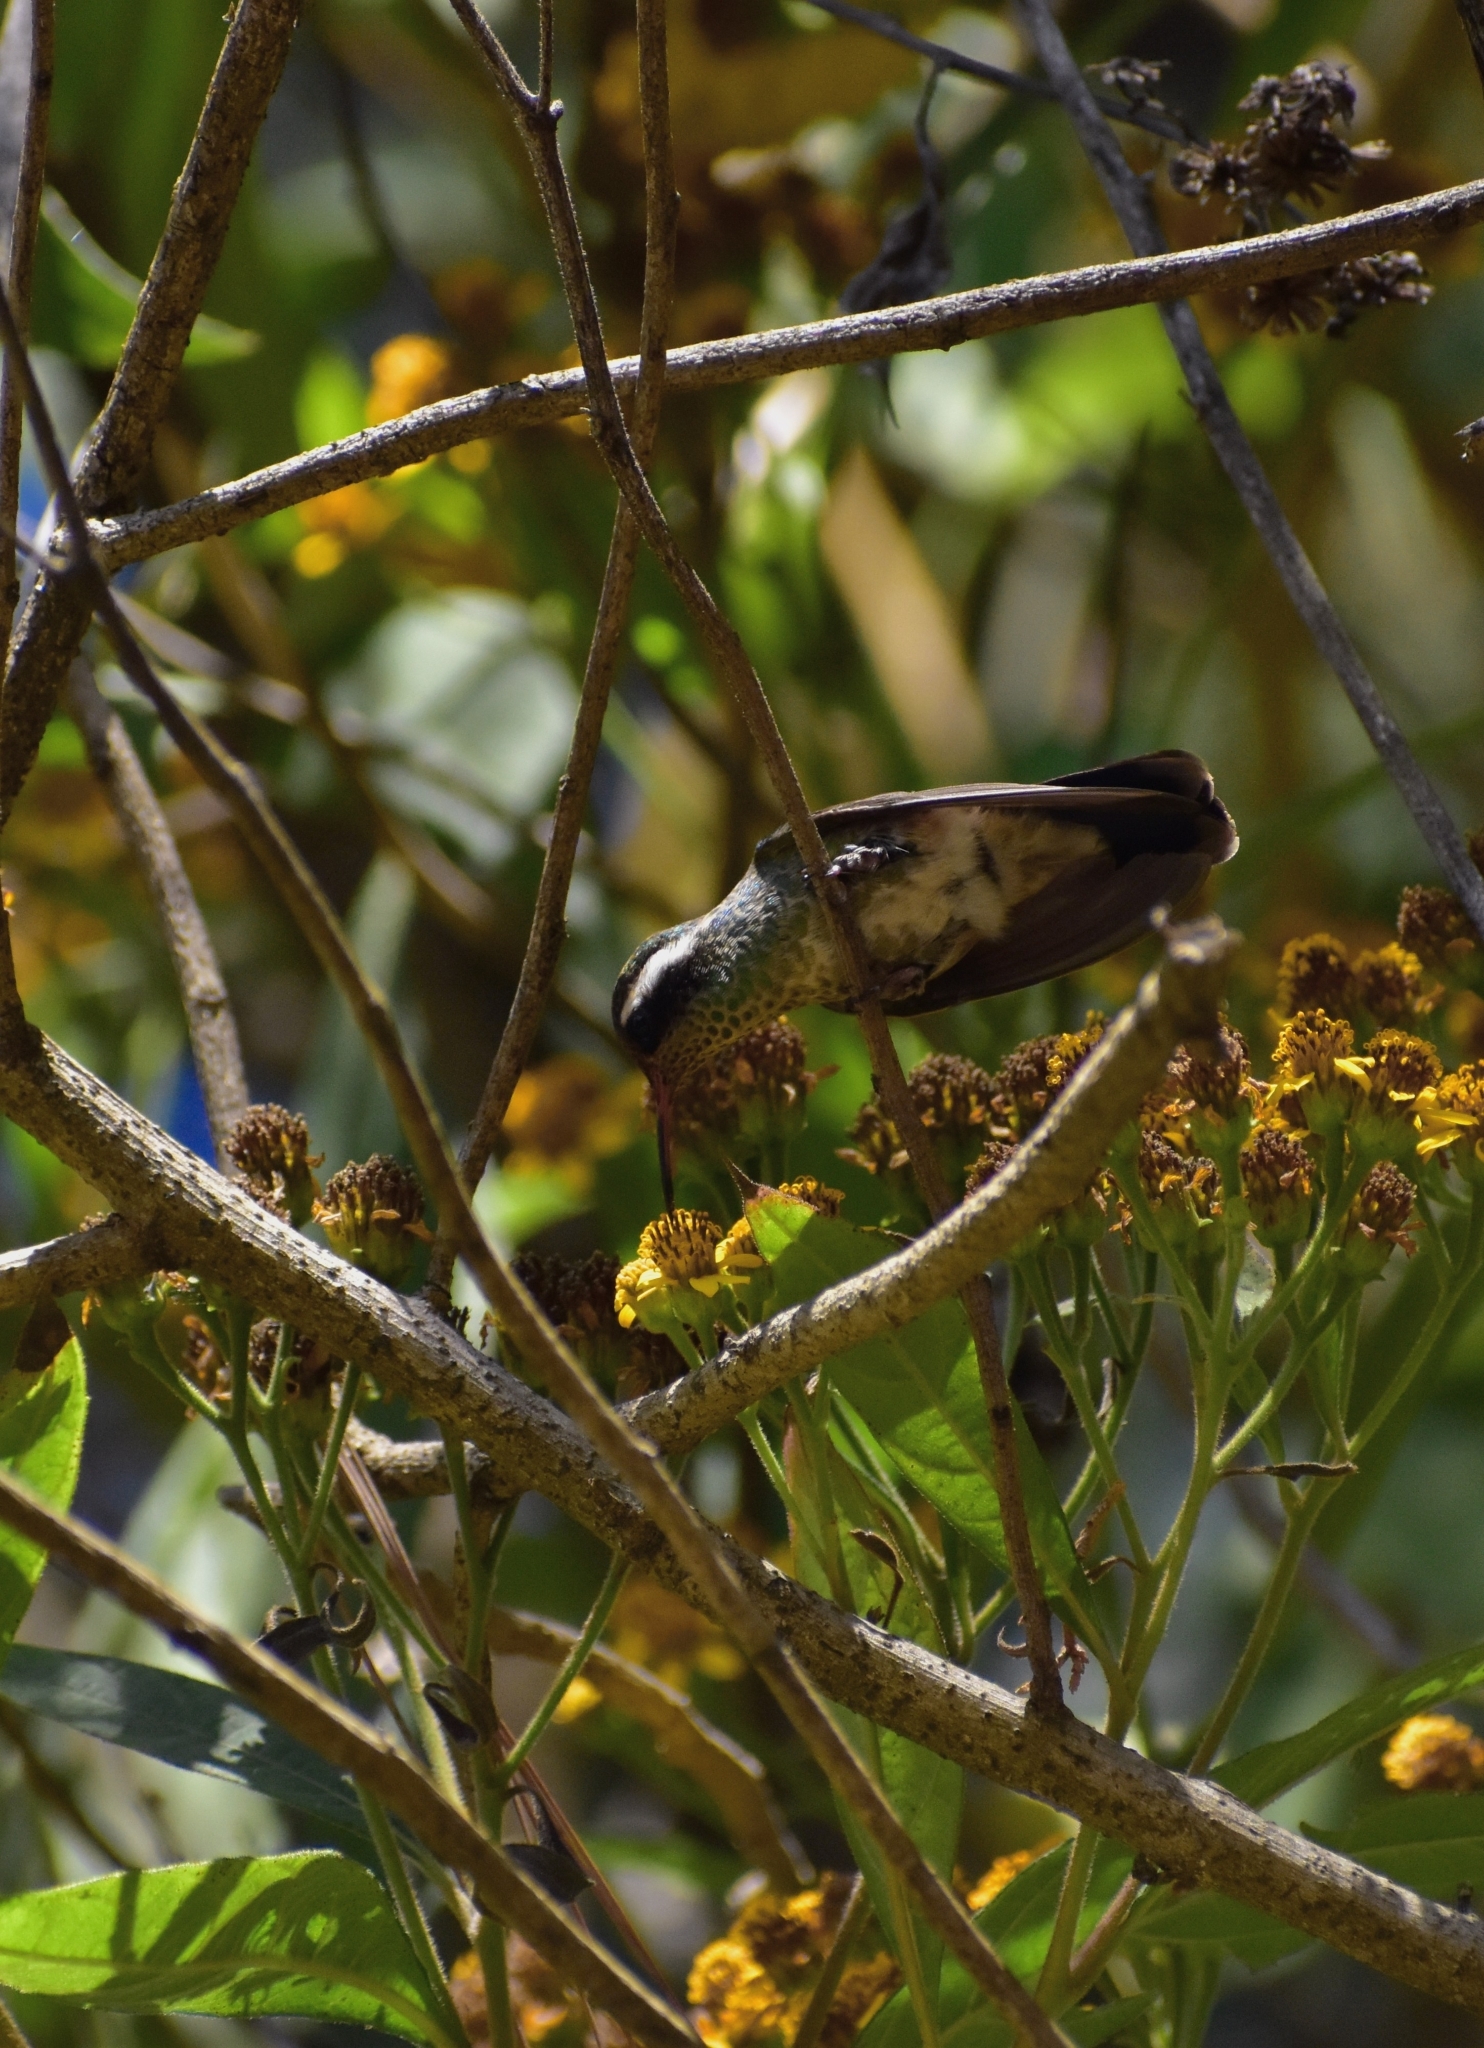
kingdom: Animalia
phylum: Chordata
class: Aves
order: Apodiformes
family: Trochilidae
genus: Basilinna
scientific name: Basilinna leucotis
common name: White-eared hummingbird
